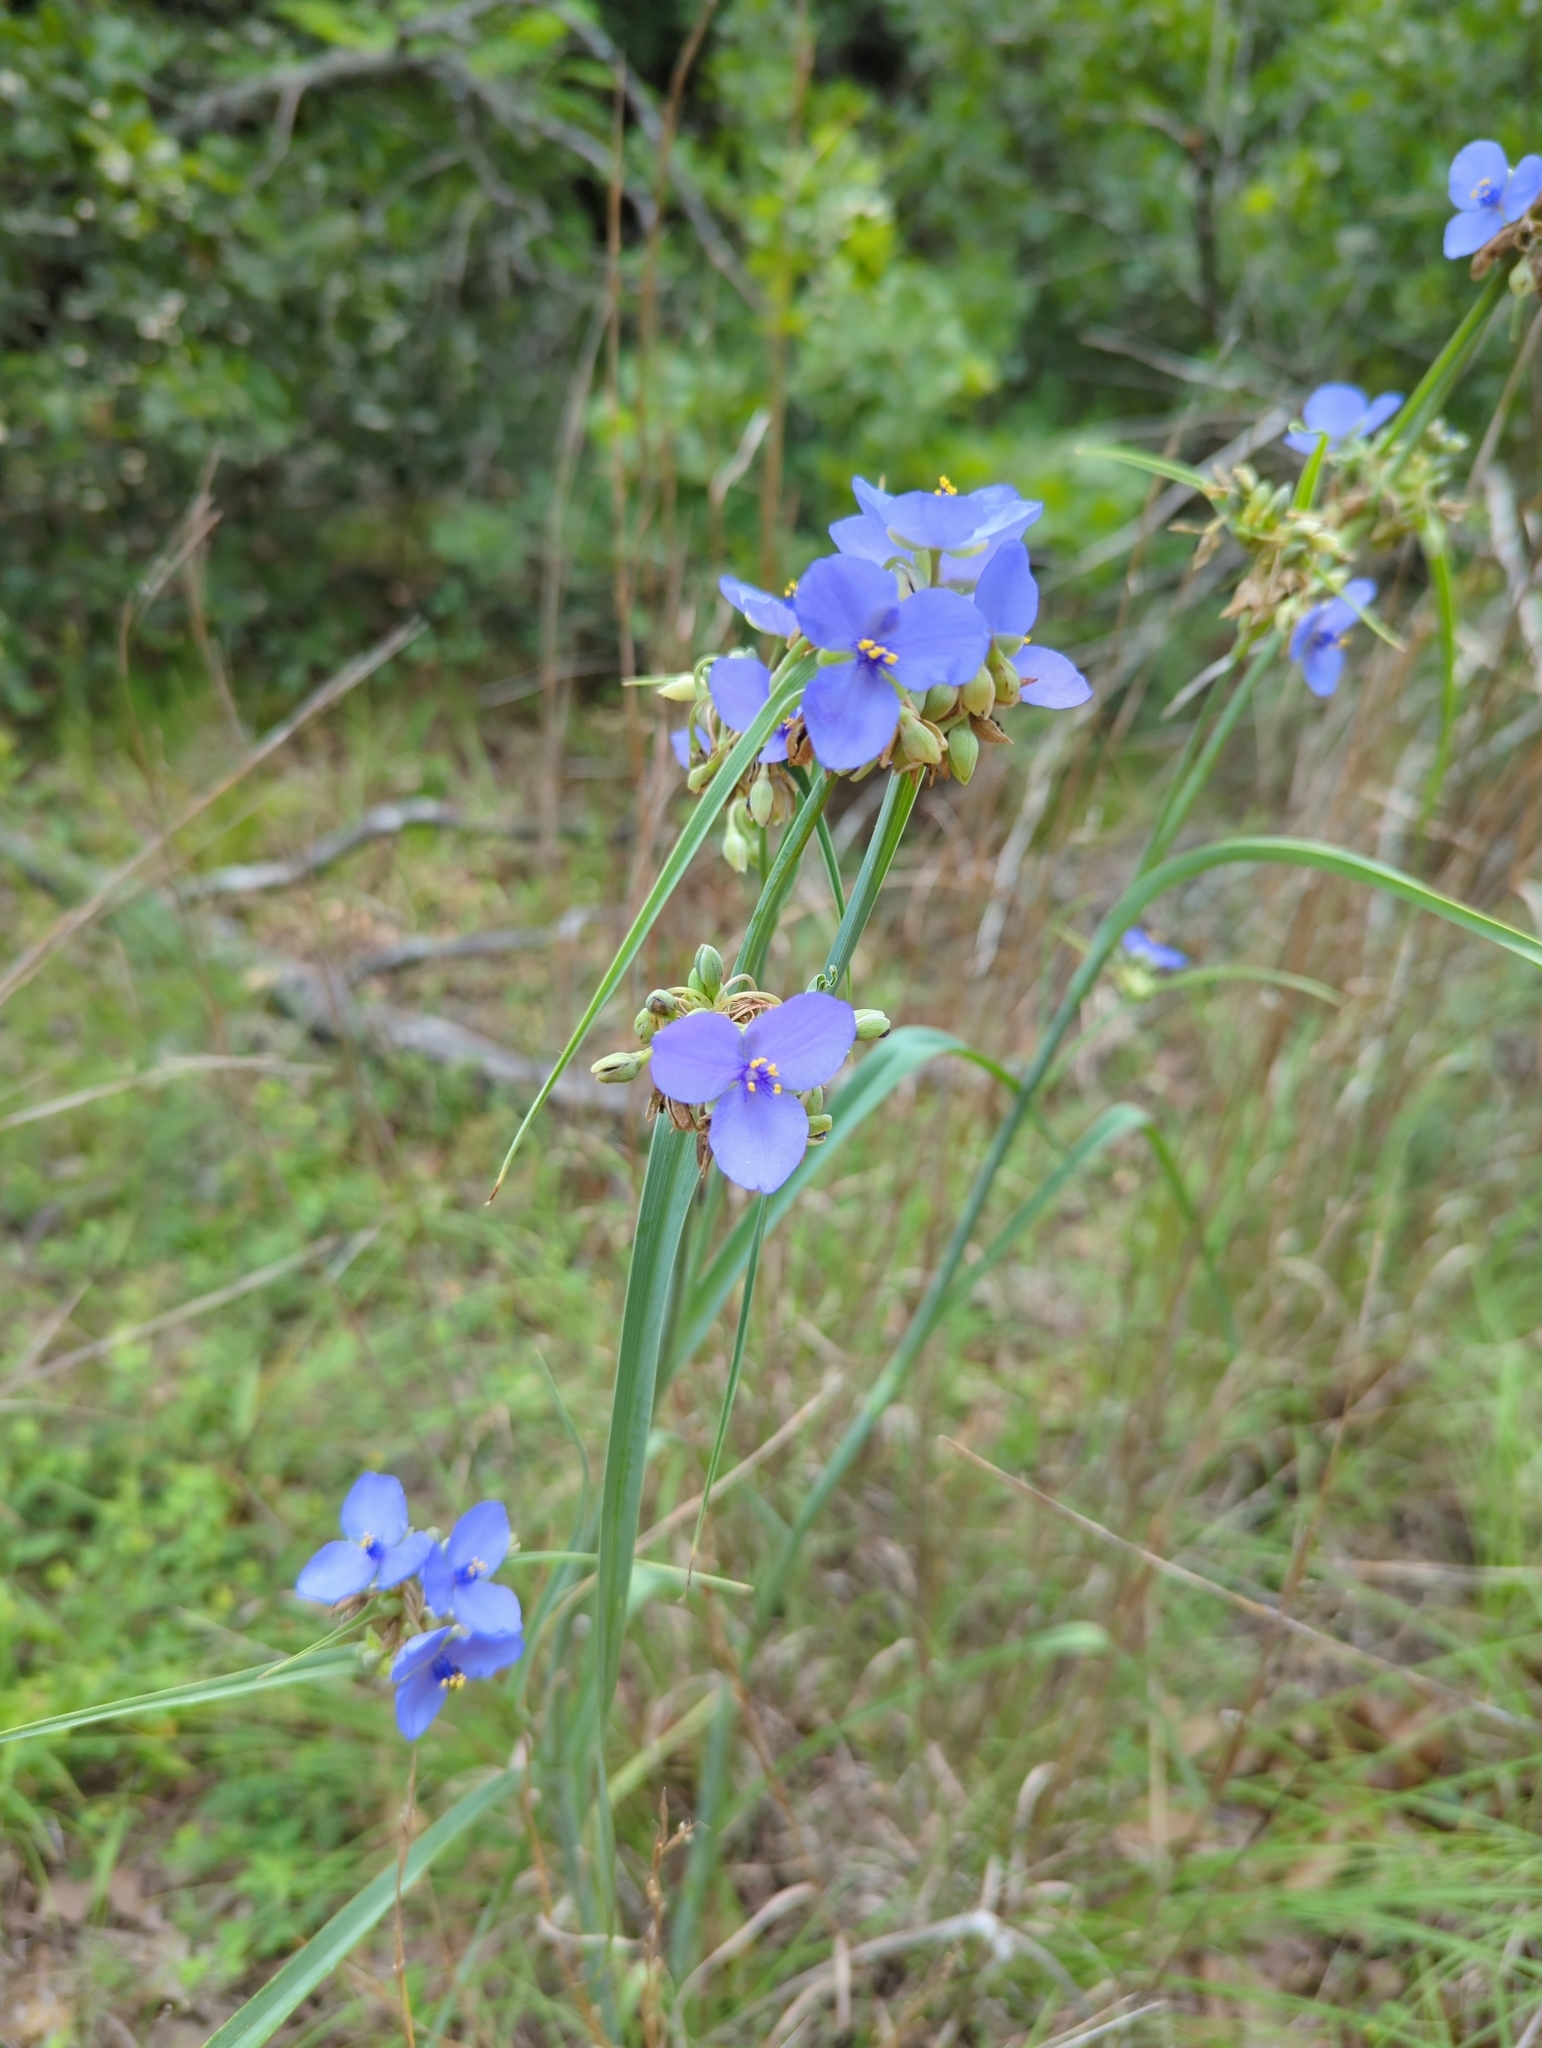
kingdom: Plantae
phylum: Tracheophyta
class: Liliopsida
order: Commelinales
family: Commelinaceae
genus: Tradescantia
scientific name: Tradescantia ohiensis
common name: Ohio spiderwort
